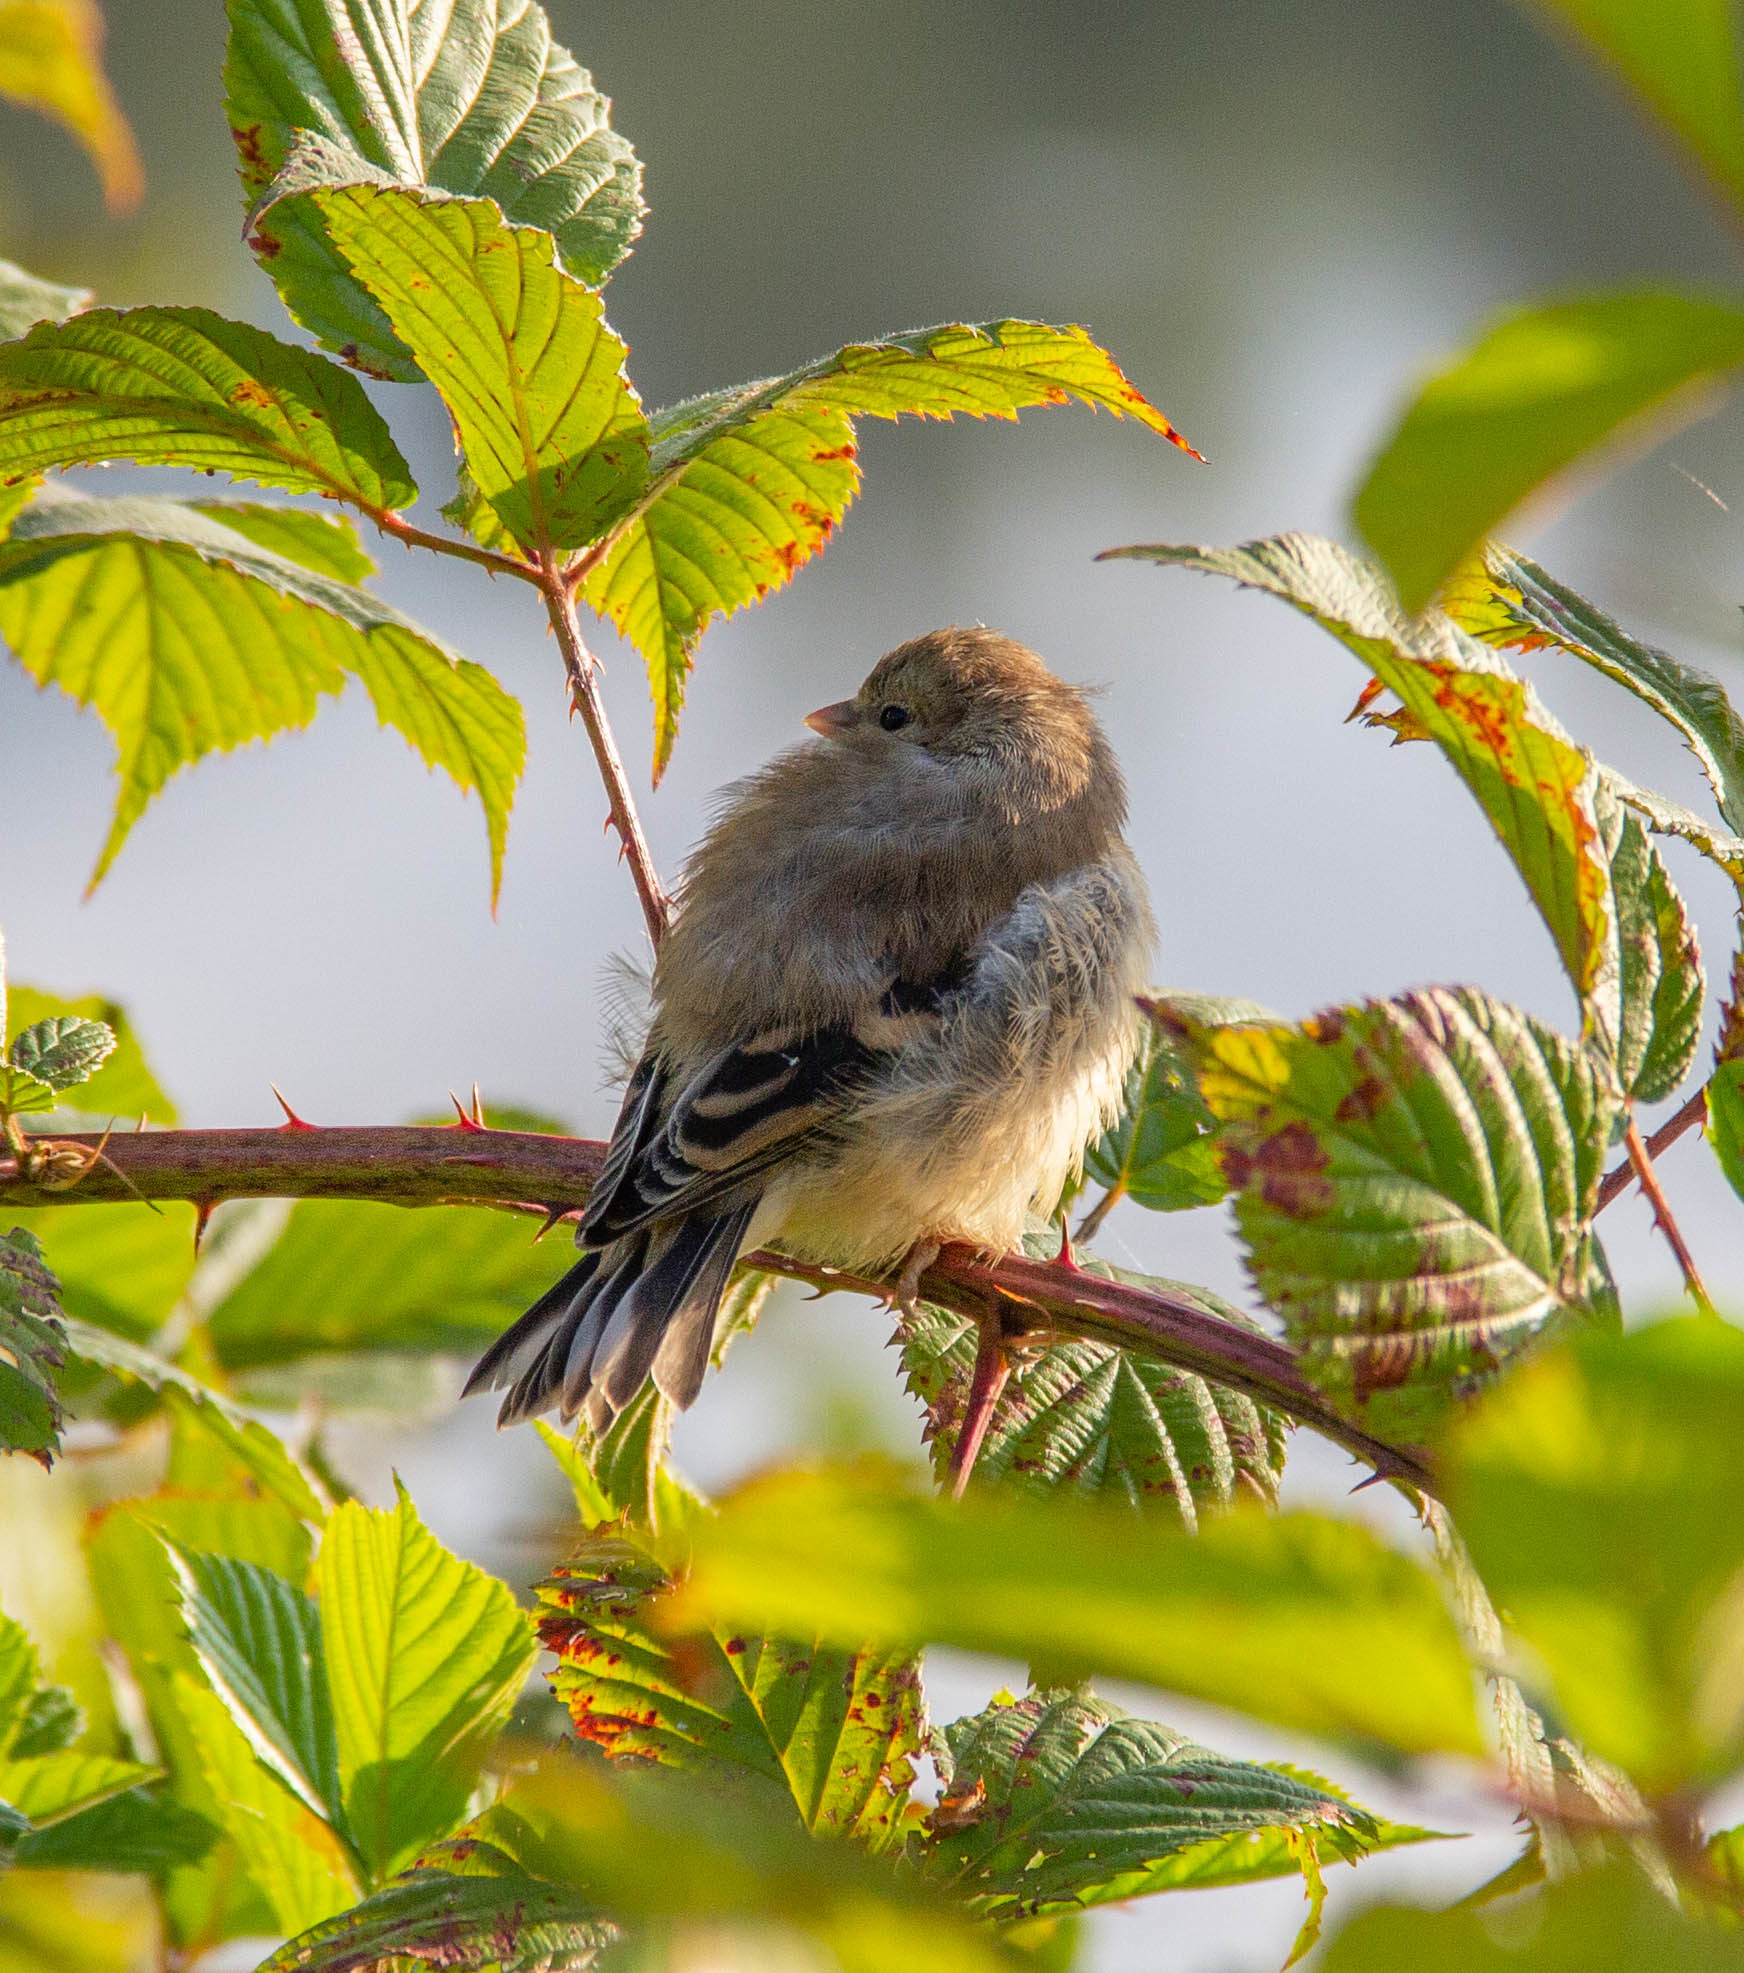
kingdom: Animalia
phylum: Chordata
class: Aves
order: Passeriformes
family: Fringillidae
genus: Spinus
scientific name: Spinus tristis
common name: American goldfinch
